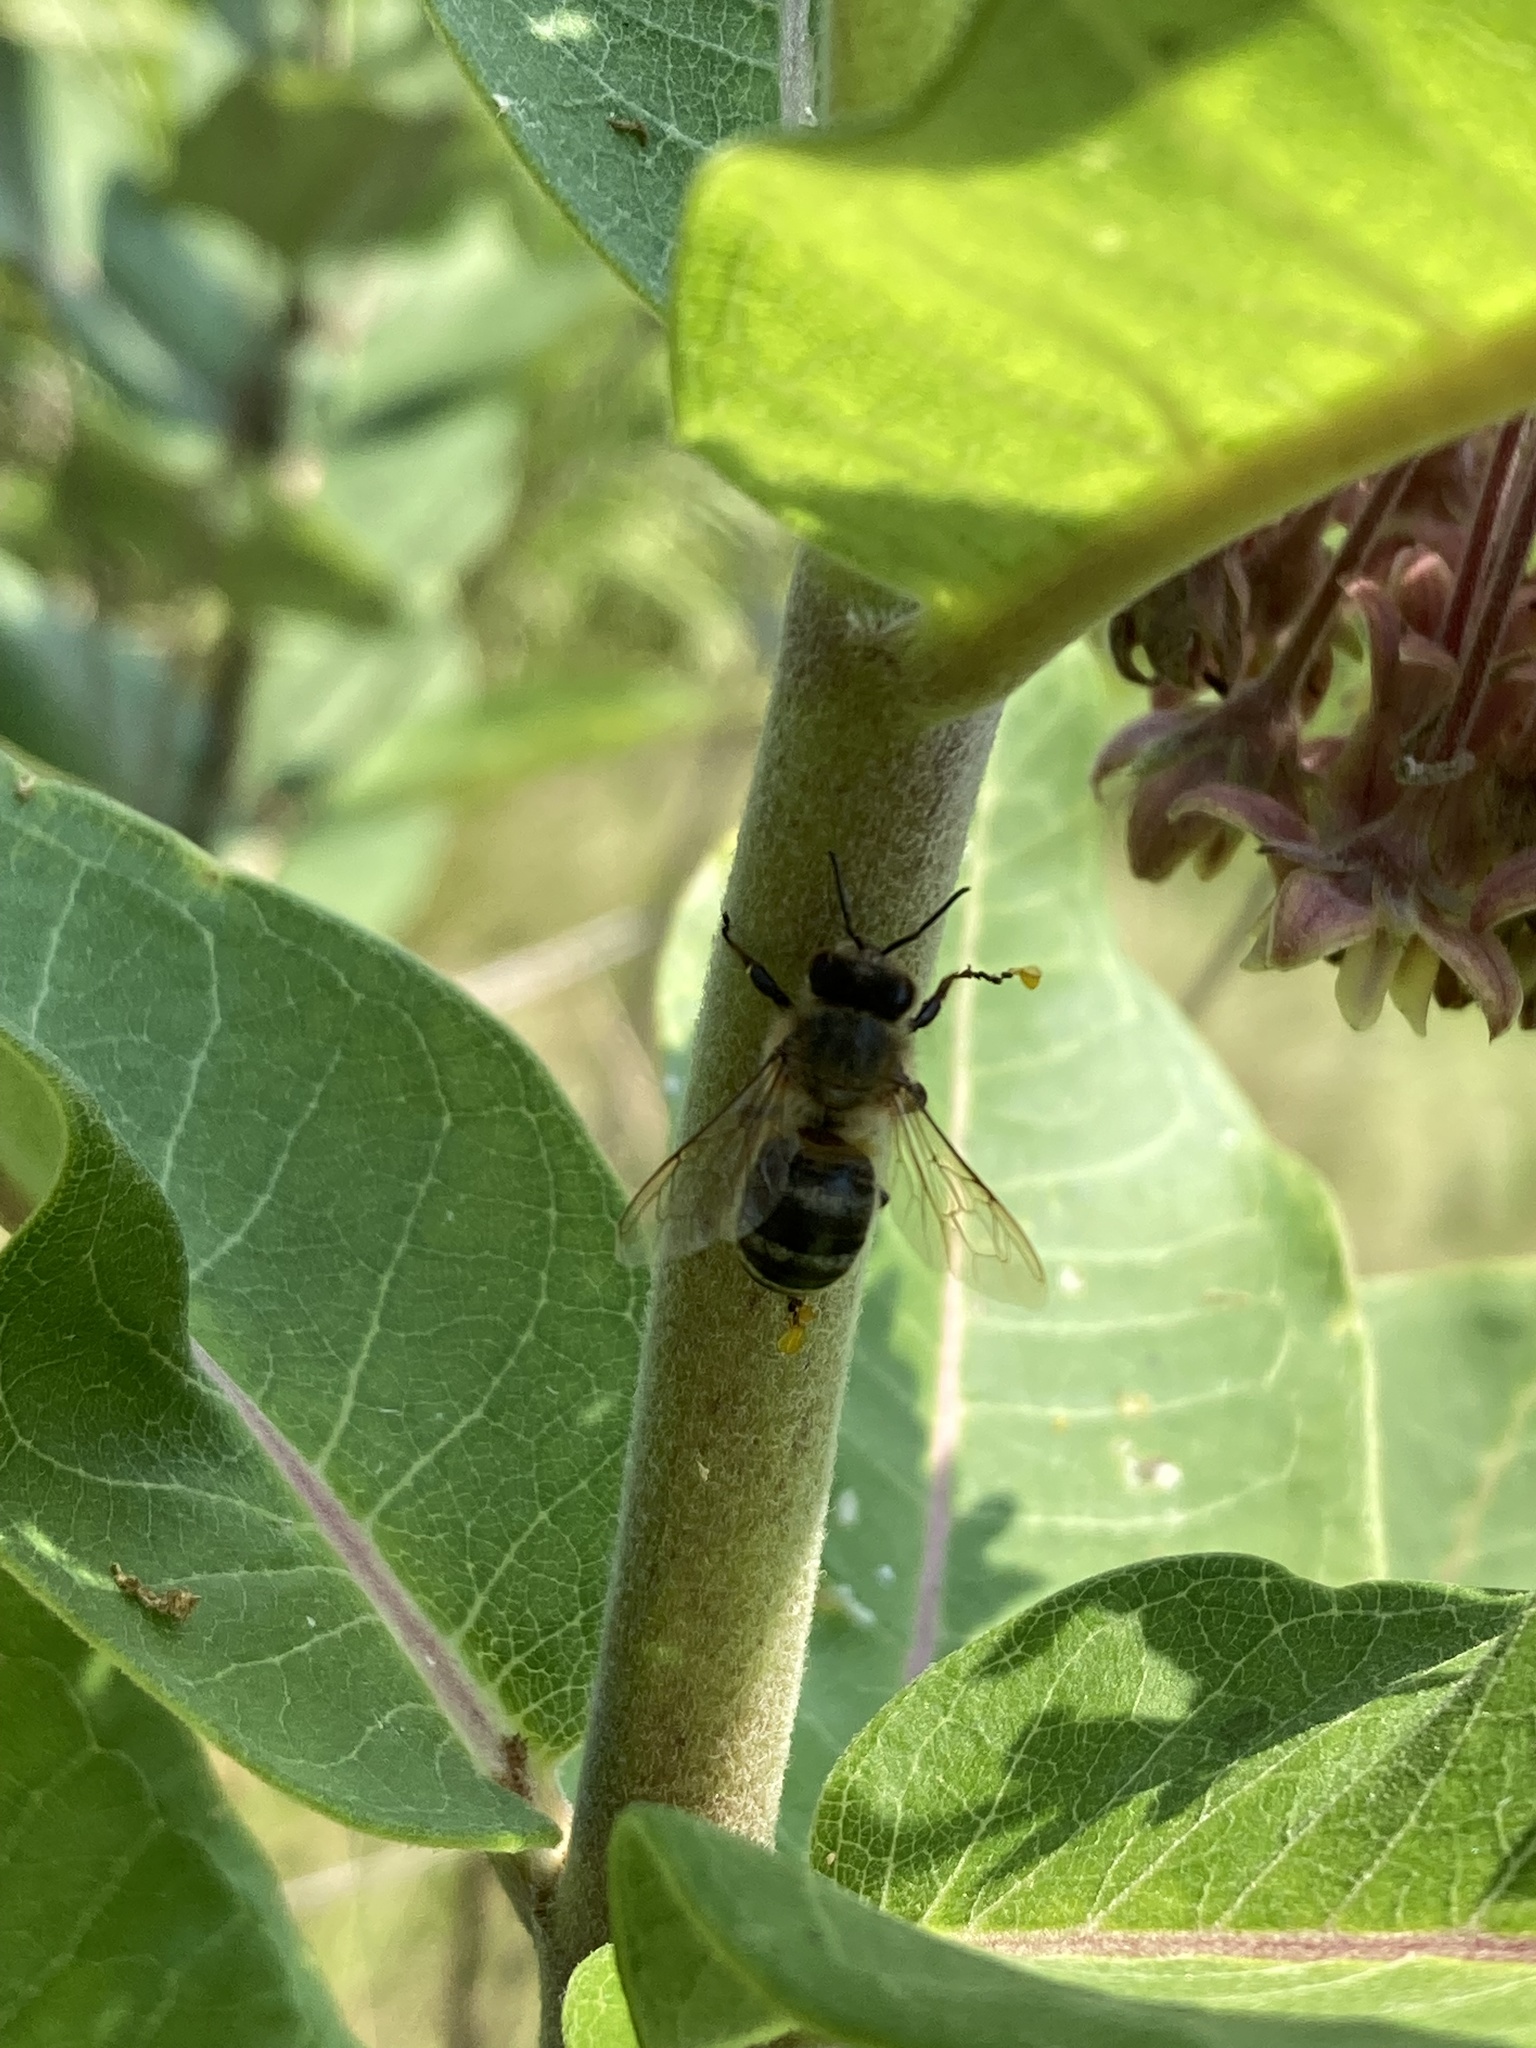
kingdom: Animalia
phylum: Arthropoda
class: Insecta
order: Hymenoptera
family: Apidae
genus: Apis
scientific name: Apis mellifera
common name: Honey bee
